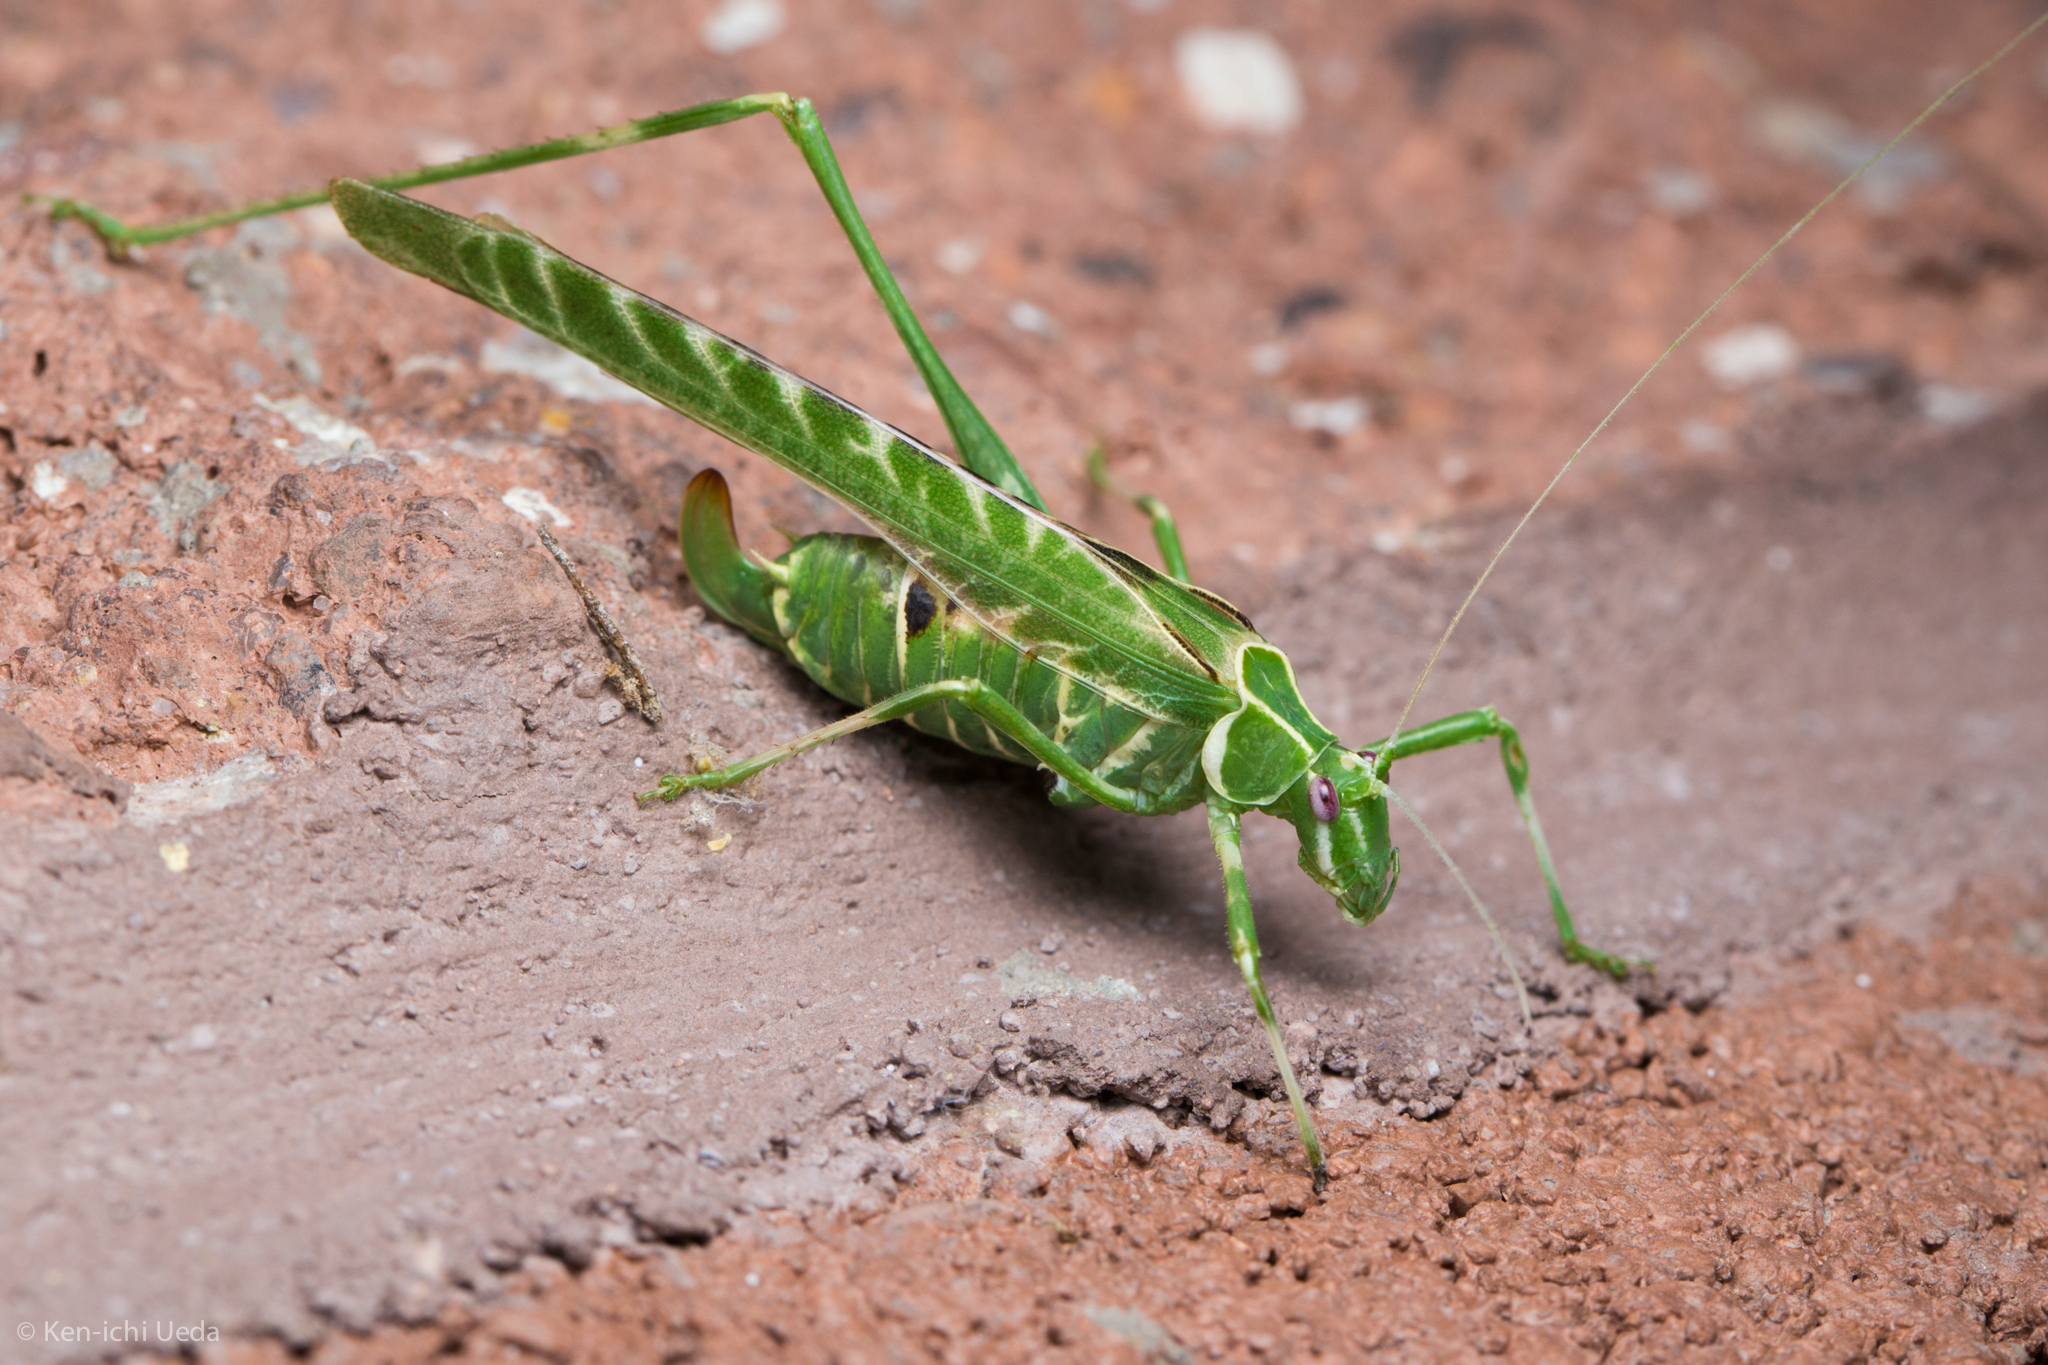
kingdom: Animalia
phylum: Arthropoda
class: Insecta
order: Orthoptera
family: Tettigoniidae
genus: Insara
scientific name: Insara elegans
